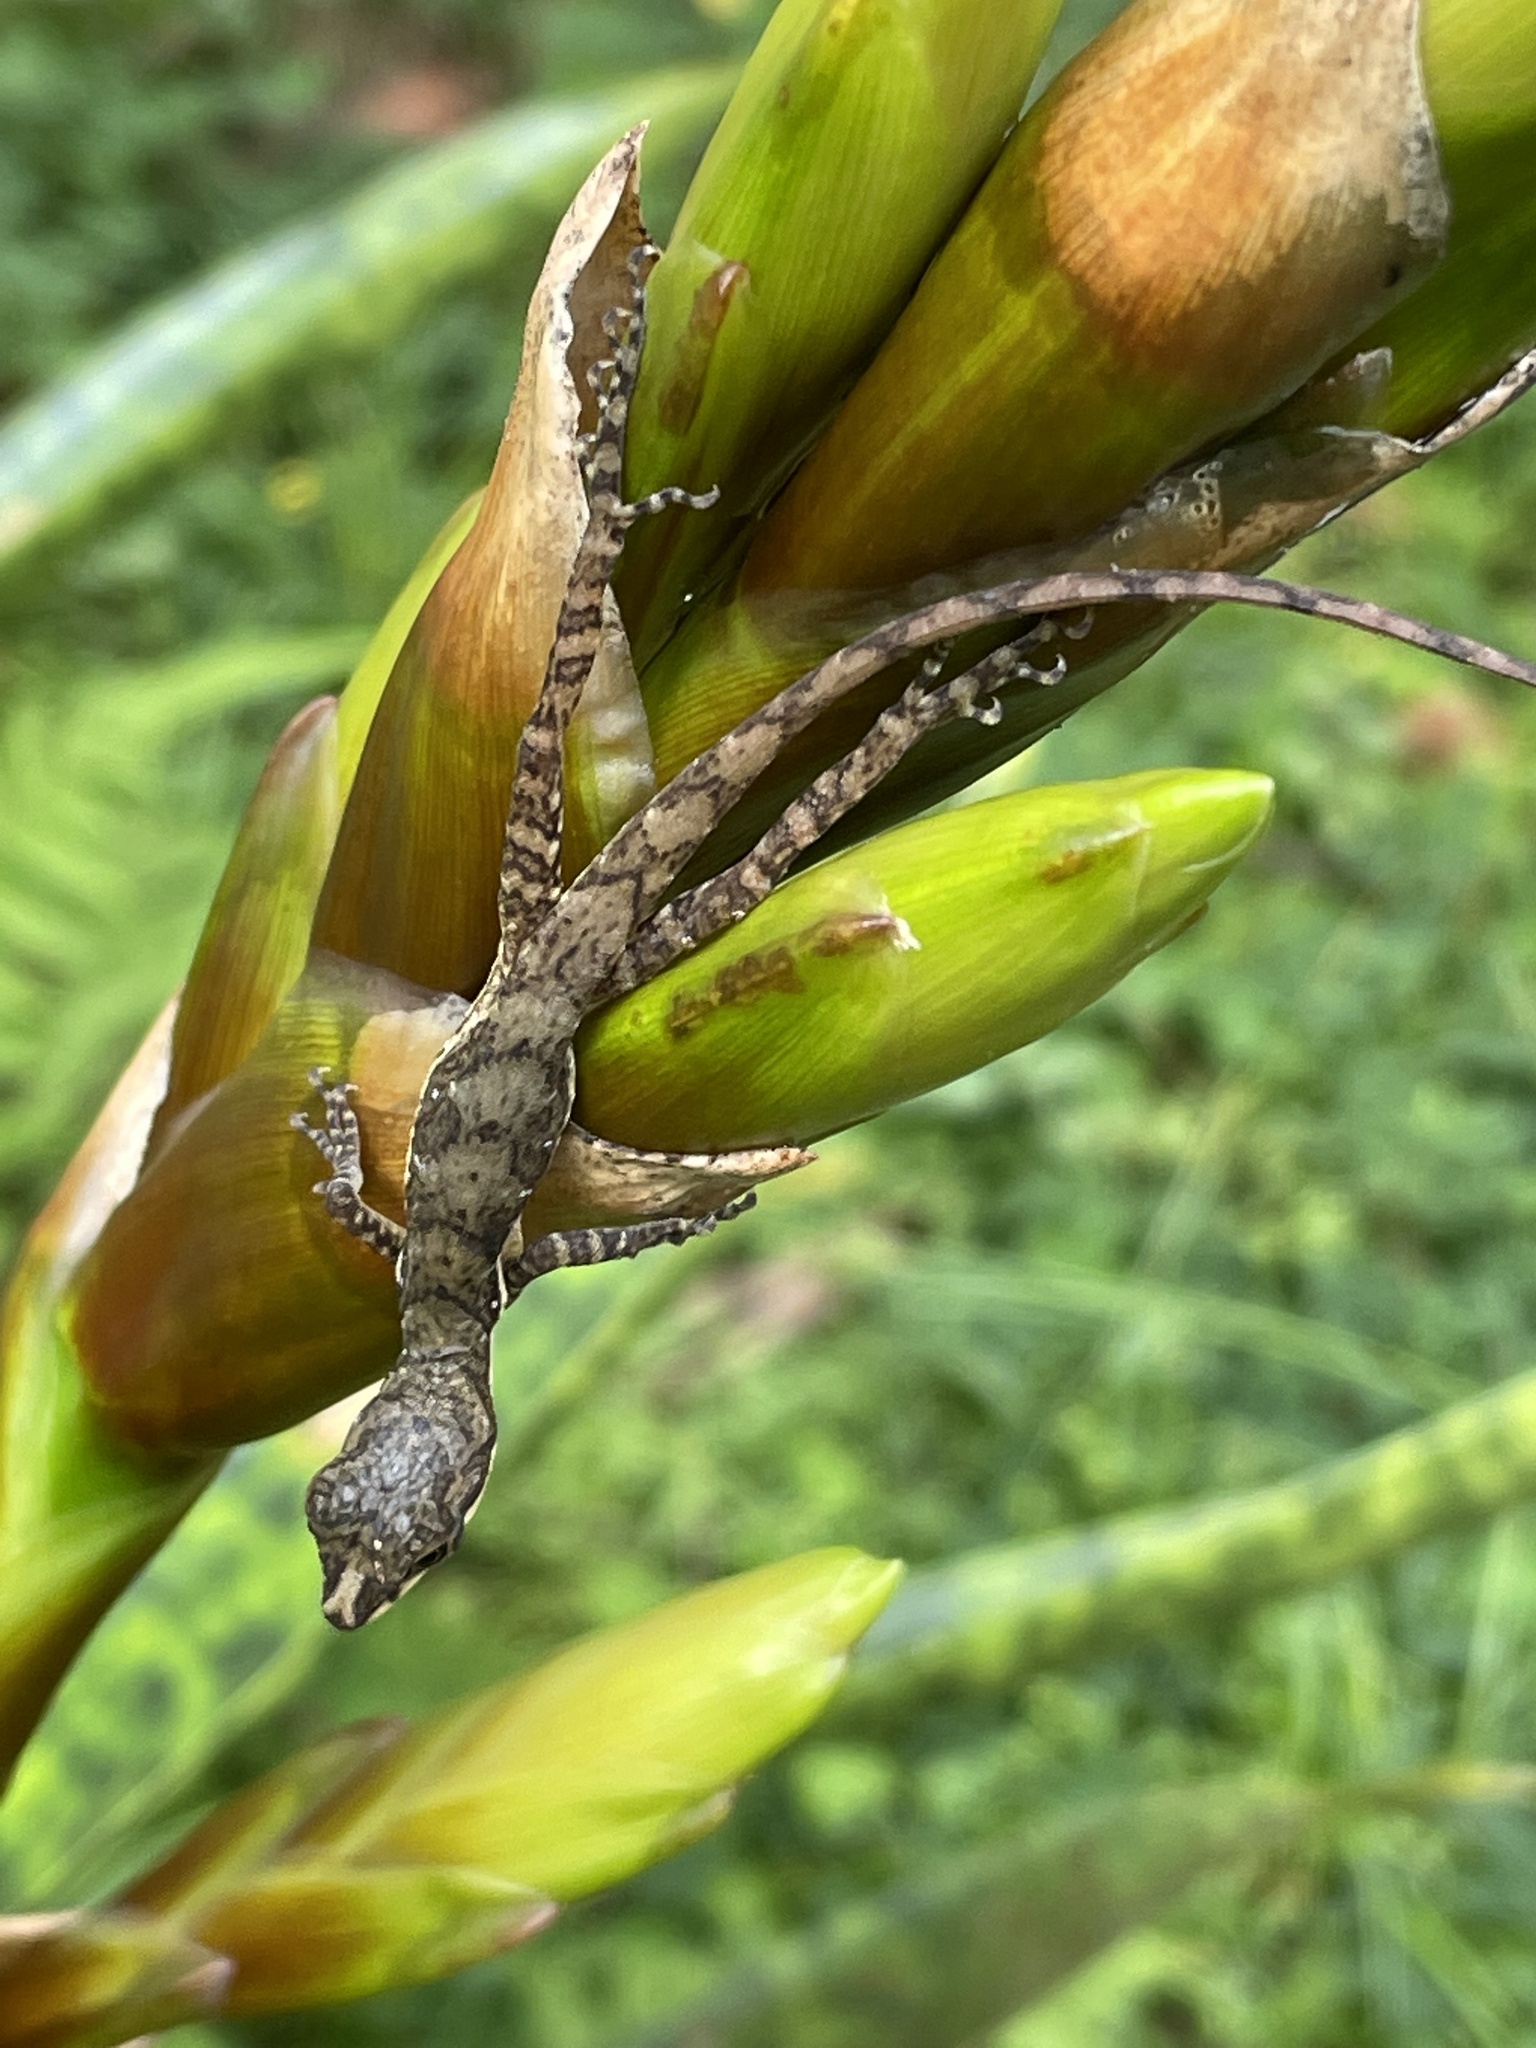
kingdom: Animalia
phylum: Chordata
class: Squamata
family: Dactyloidae
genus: Anolis
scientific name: Anolis oxylophus
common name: Stream anole
